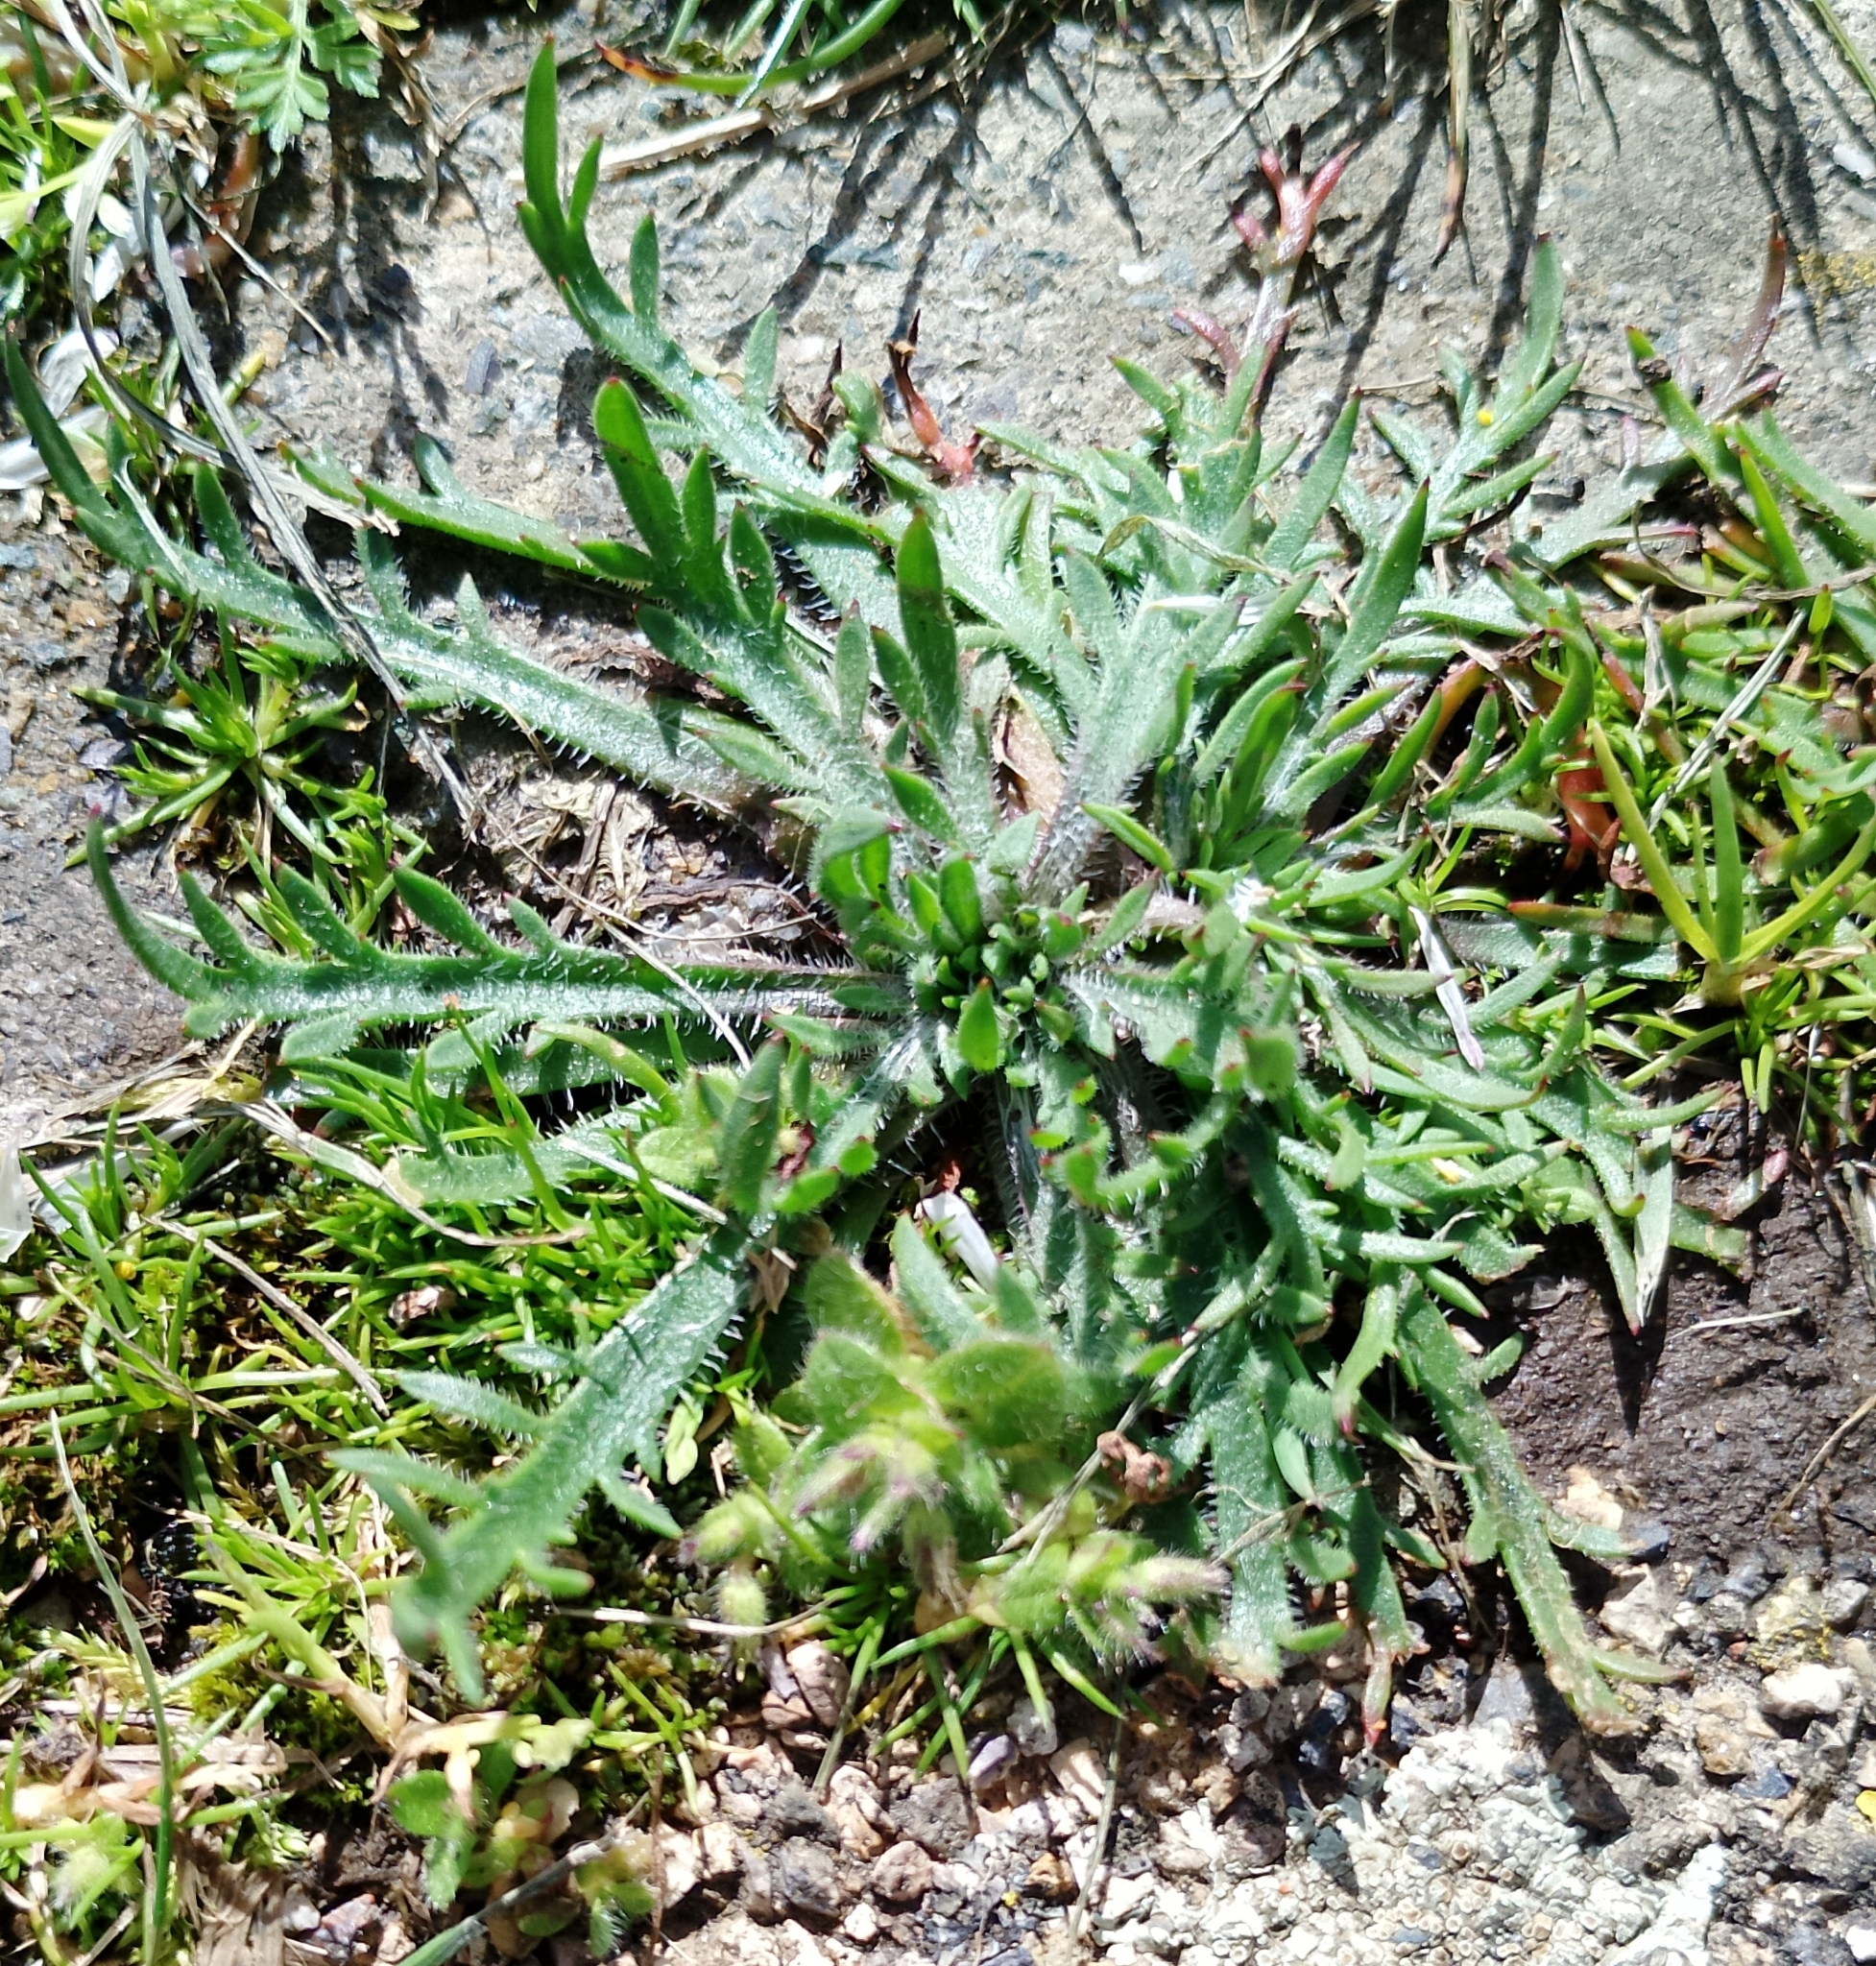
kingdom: Plantae
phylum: Tracheophyta
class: Magnoliopsida
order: Lamiales
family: Plantaginaceae
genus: Plantago
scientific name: Plantago coronopus
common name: Buck's-horn plantain
